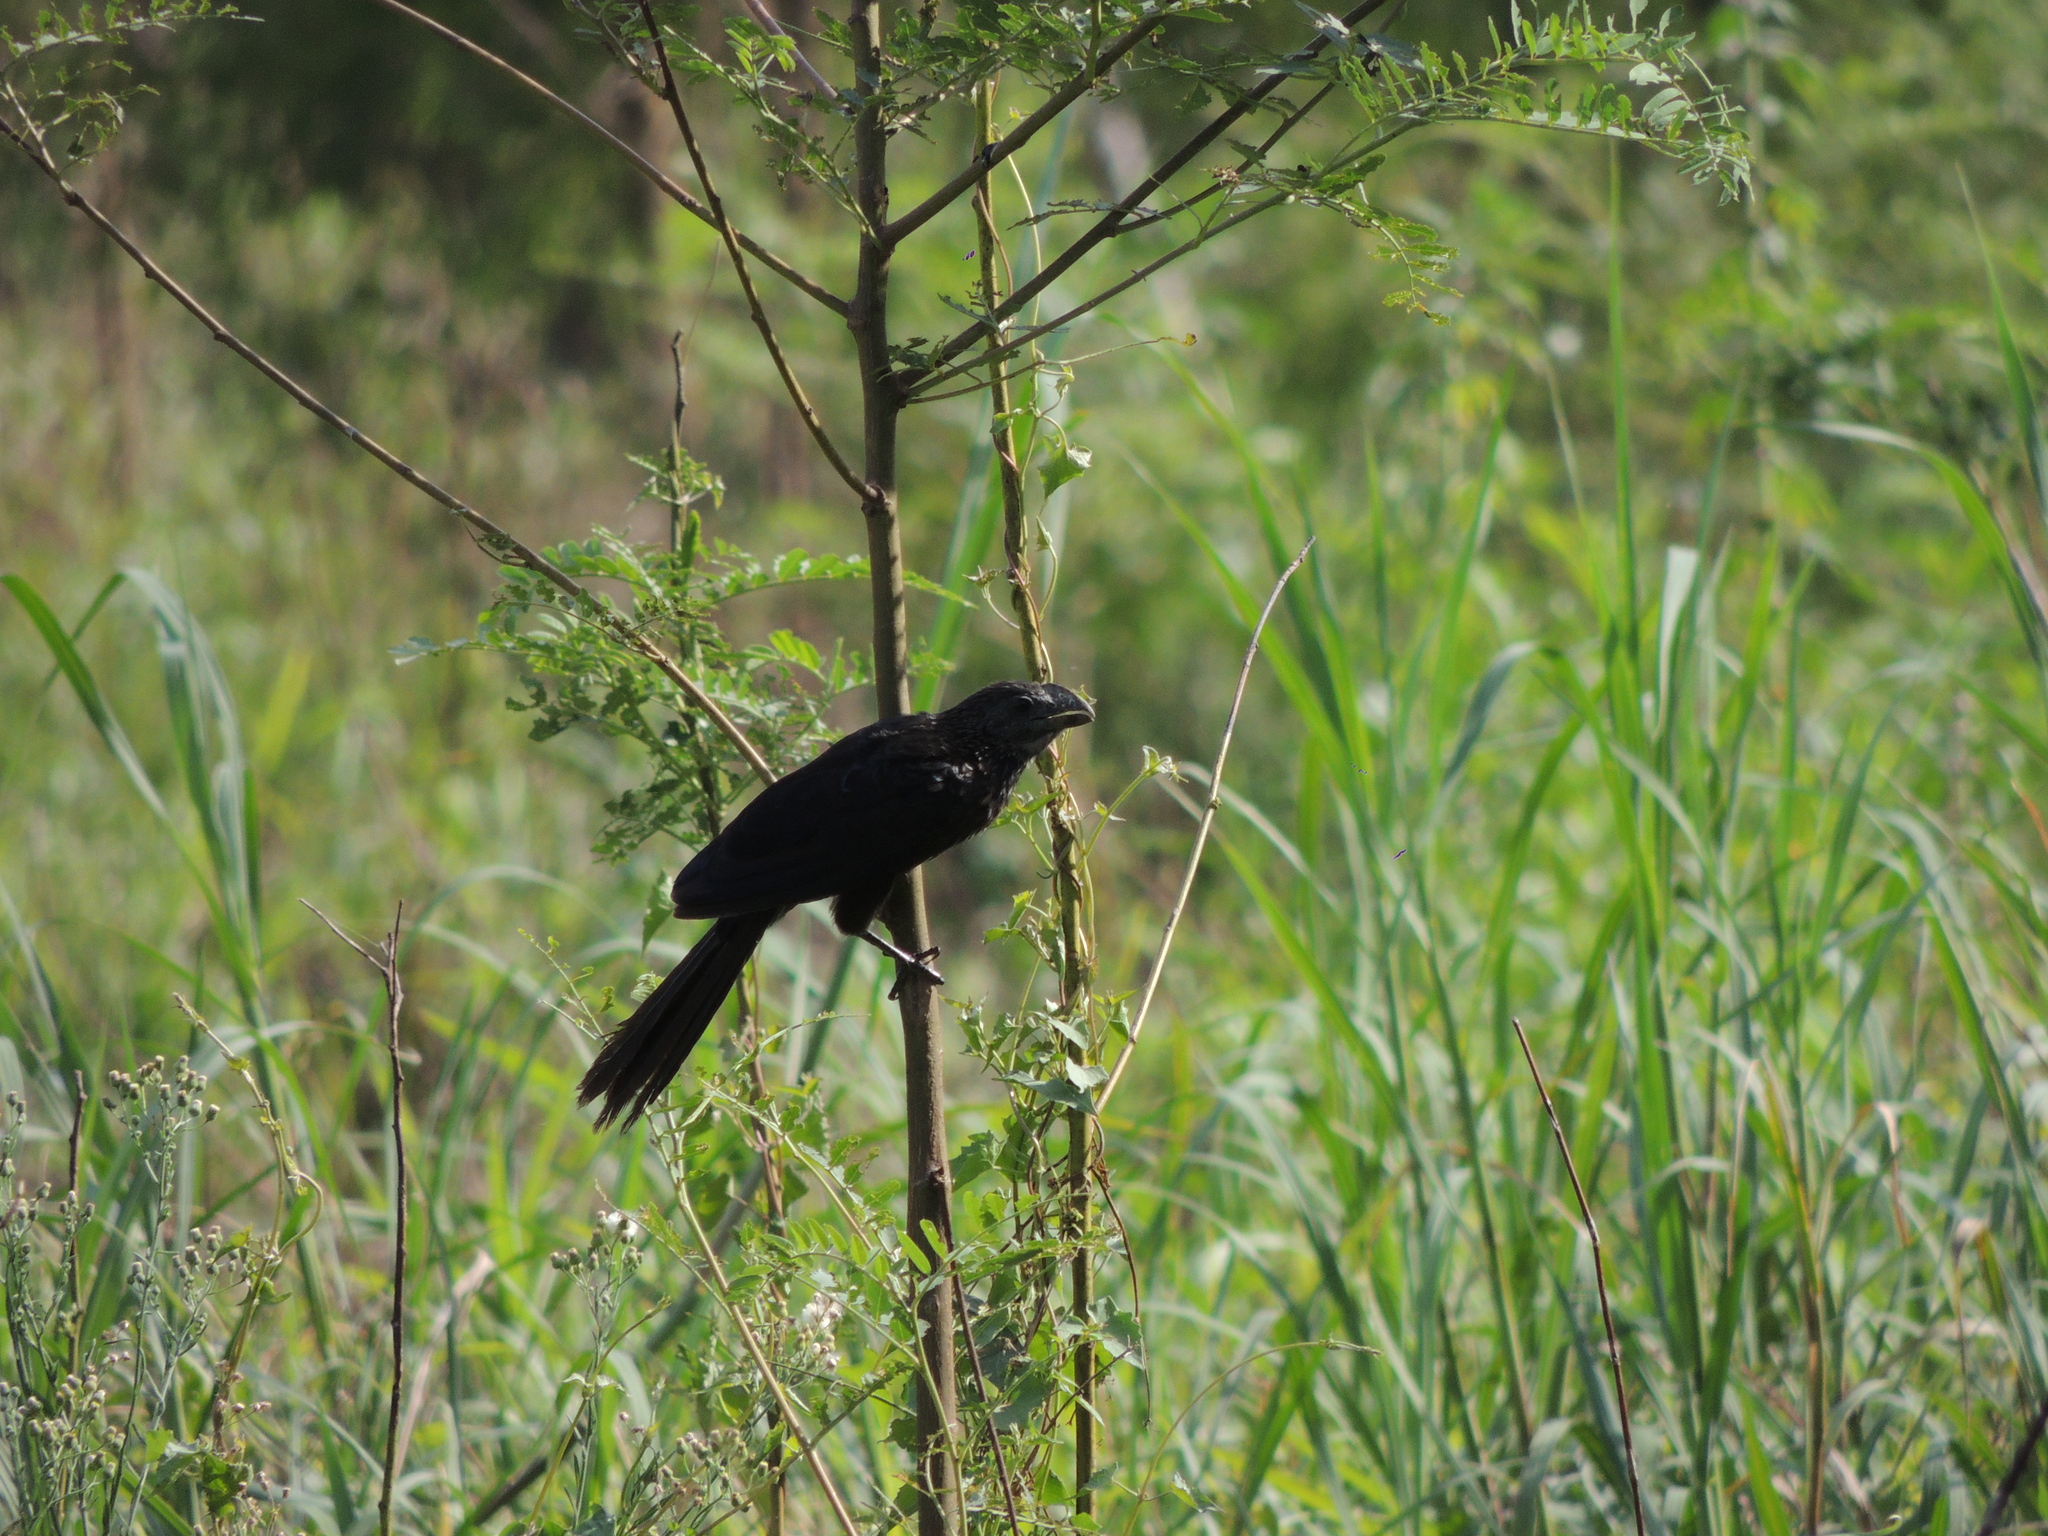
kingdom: Animalia
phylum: Chordata
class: Aves
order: Cuculiformes
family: Cuculidae
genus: Crotophaga
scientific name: Crotophaga ani
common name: Smooth-billed ani
